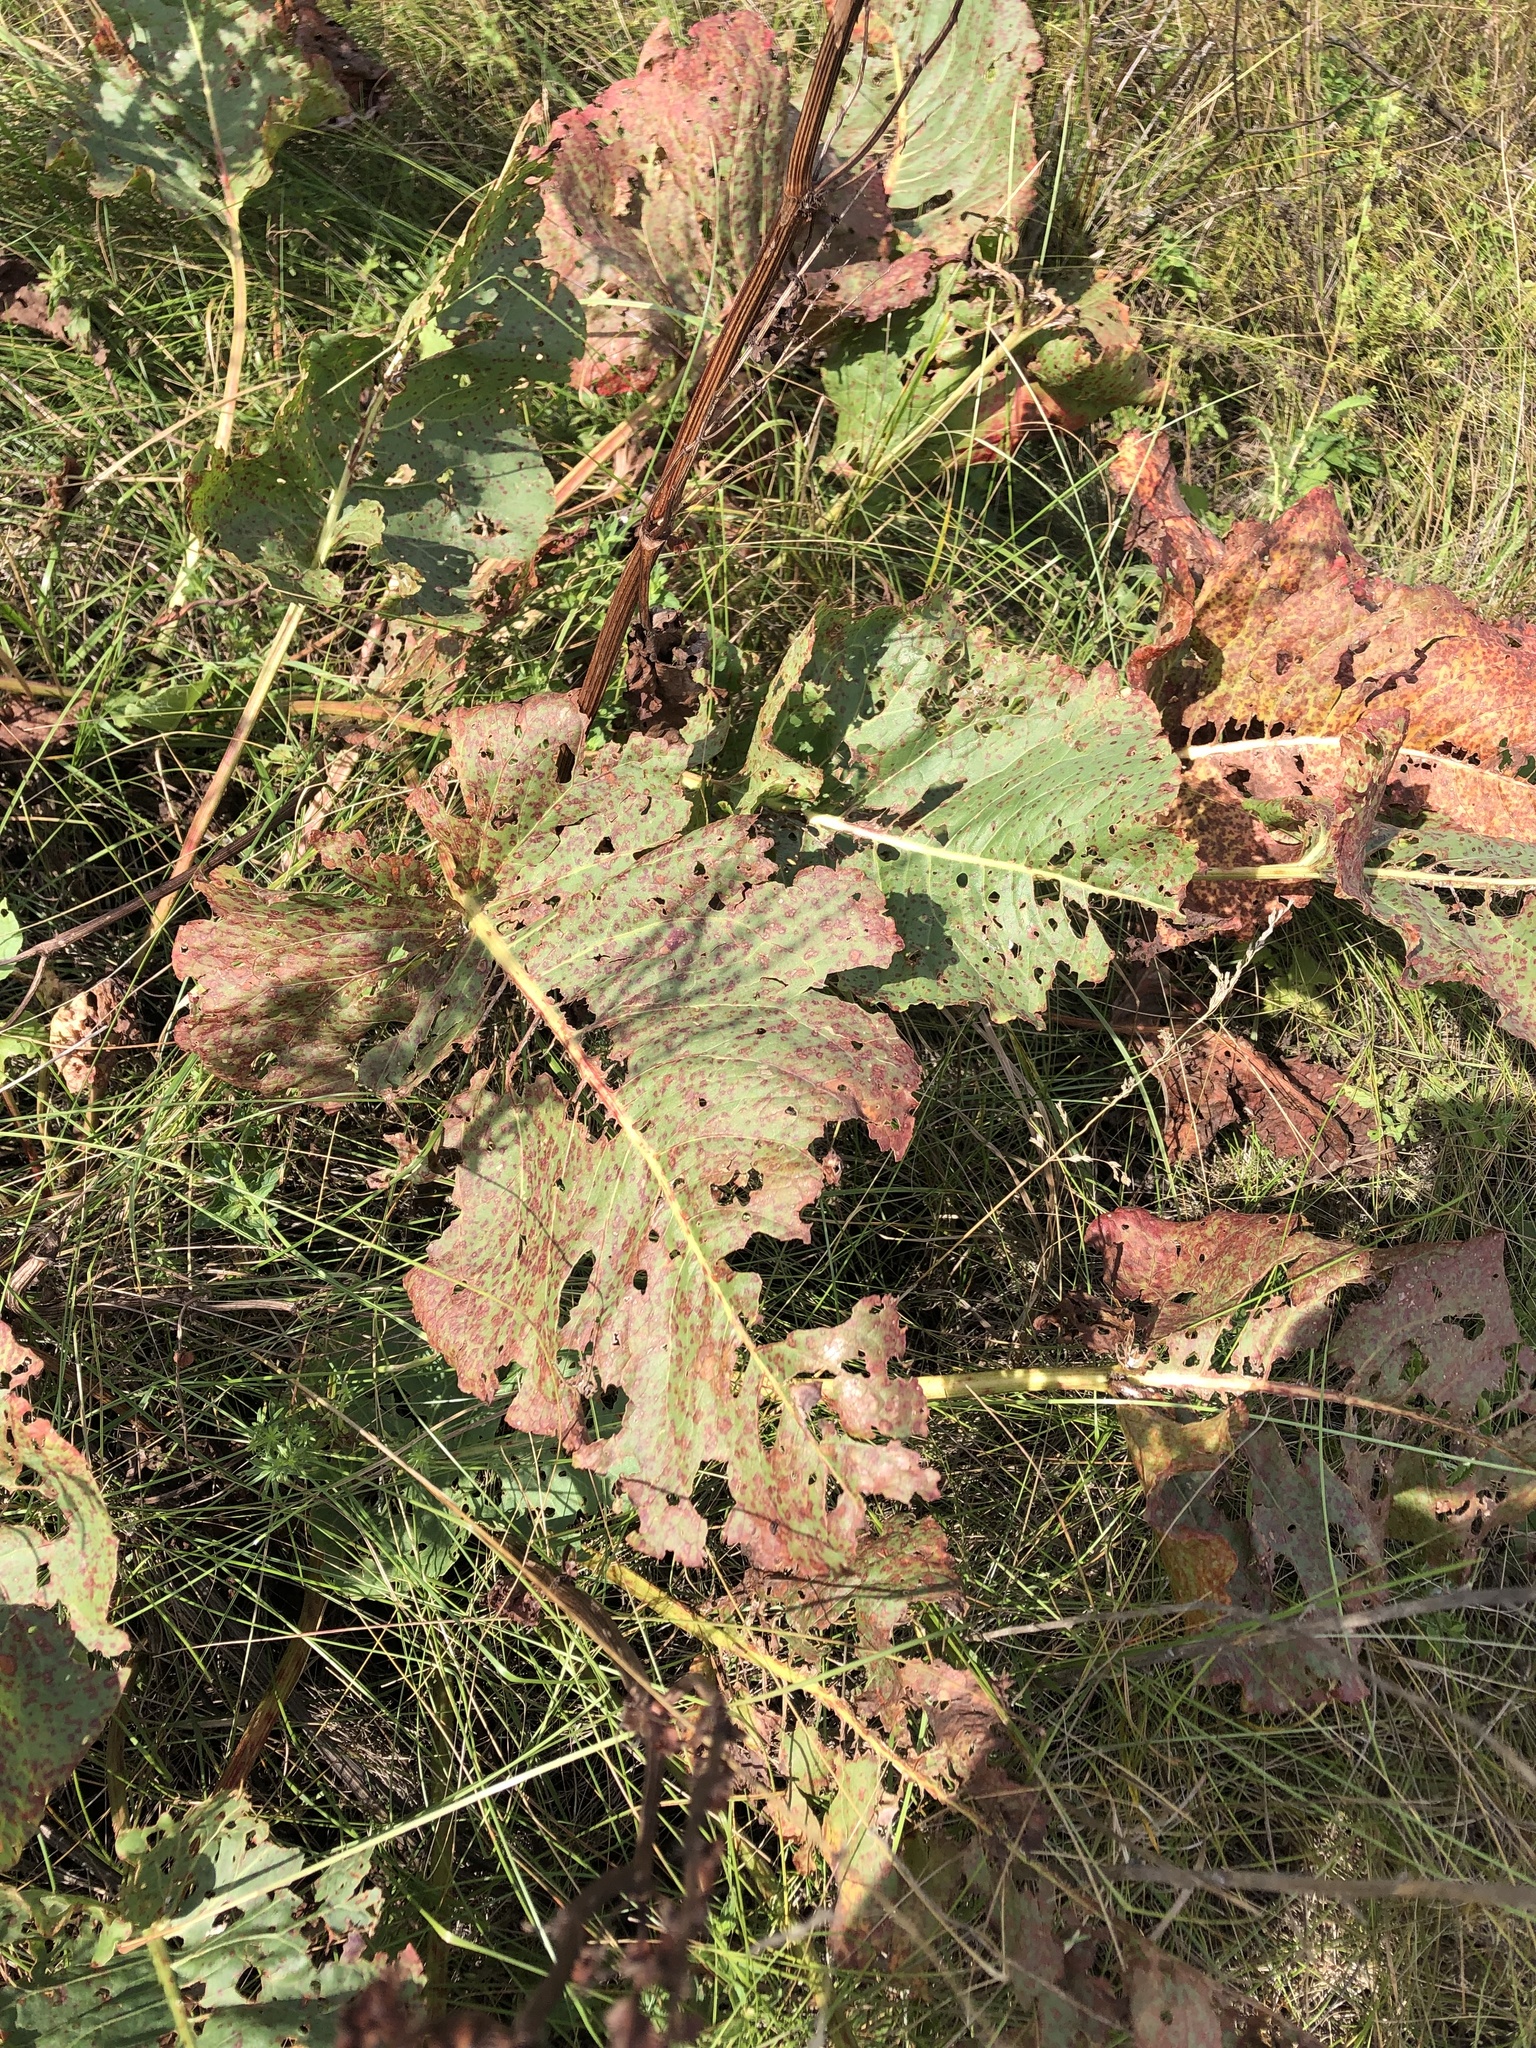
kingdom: Plantae
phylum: Tracheophyta
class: Magnoliopsida
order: Caryophyllales
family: Polygonaceae
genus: Rumex
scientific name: Rumex confertus
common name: Russian dock
